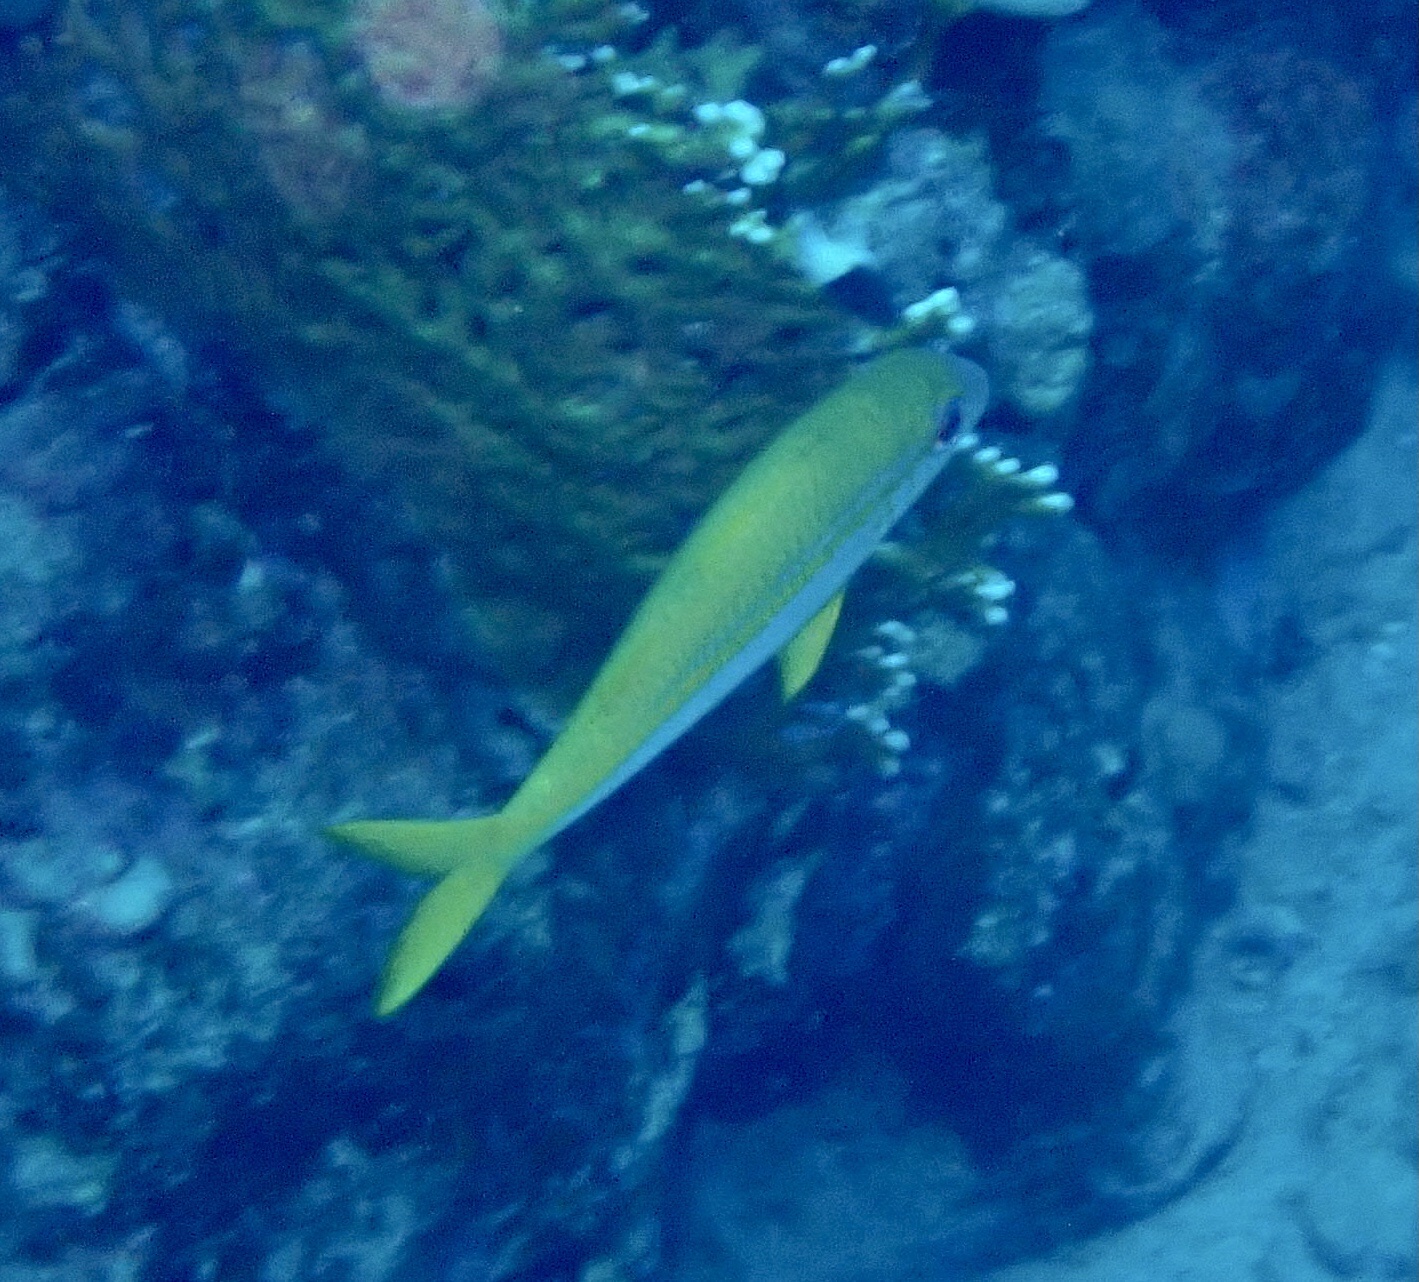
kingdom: Animalia
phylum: Chordata
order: Perciformes
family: Mullidae
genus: Mulloidichthys
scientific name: Mulloidichthys vanicolensis
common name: Yellowfin goatfish
